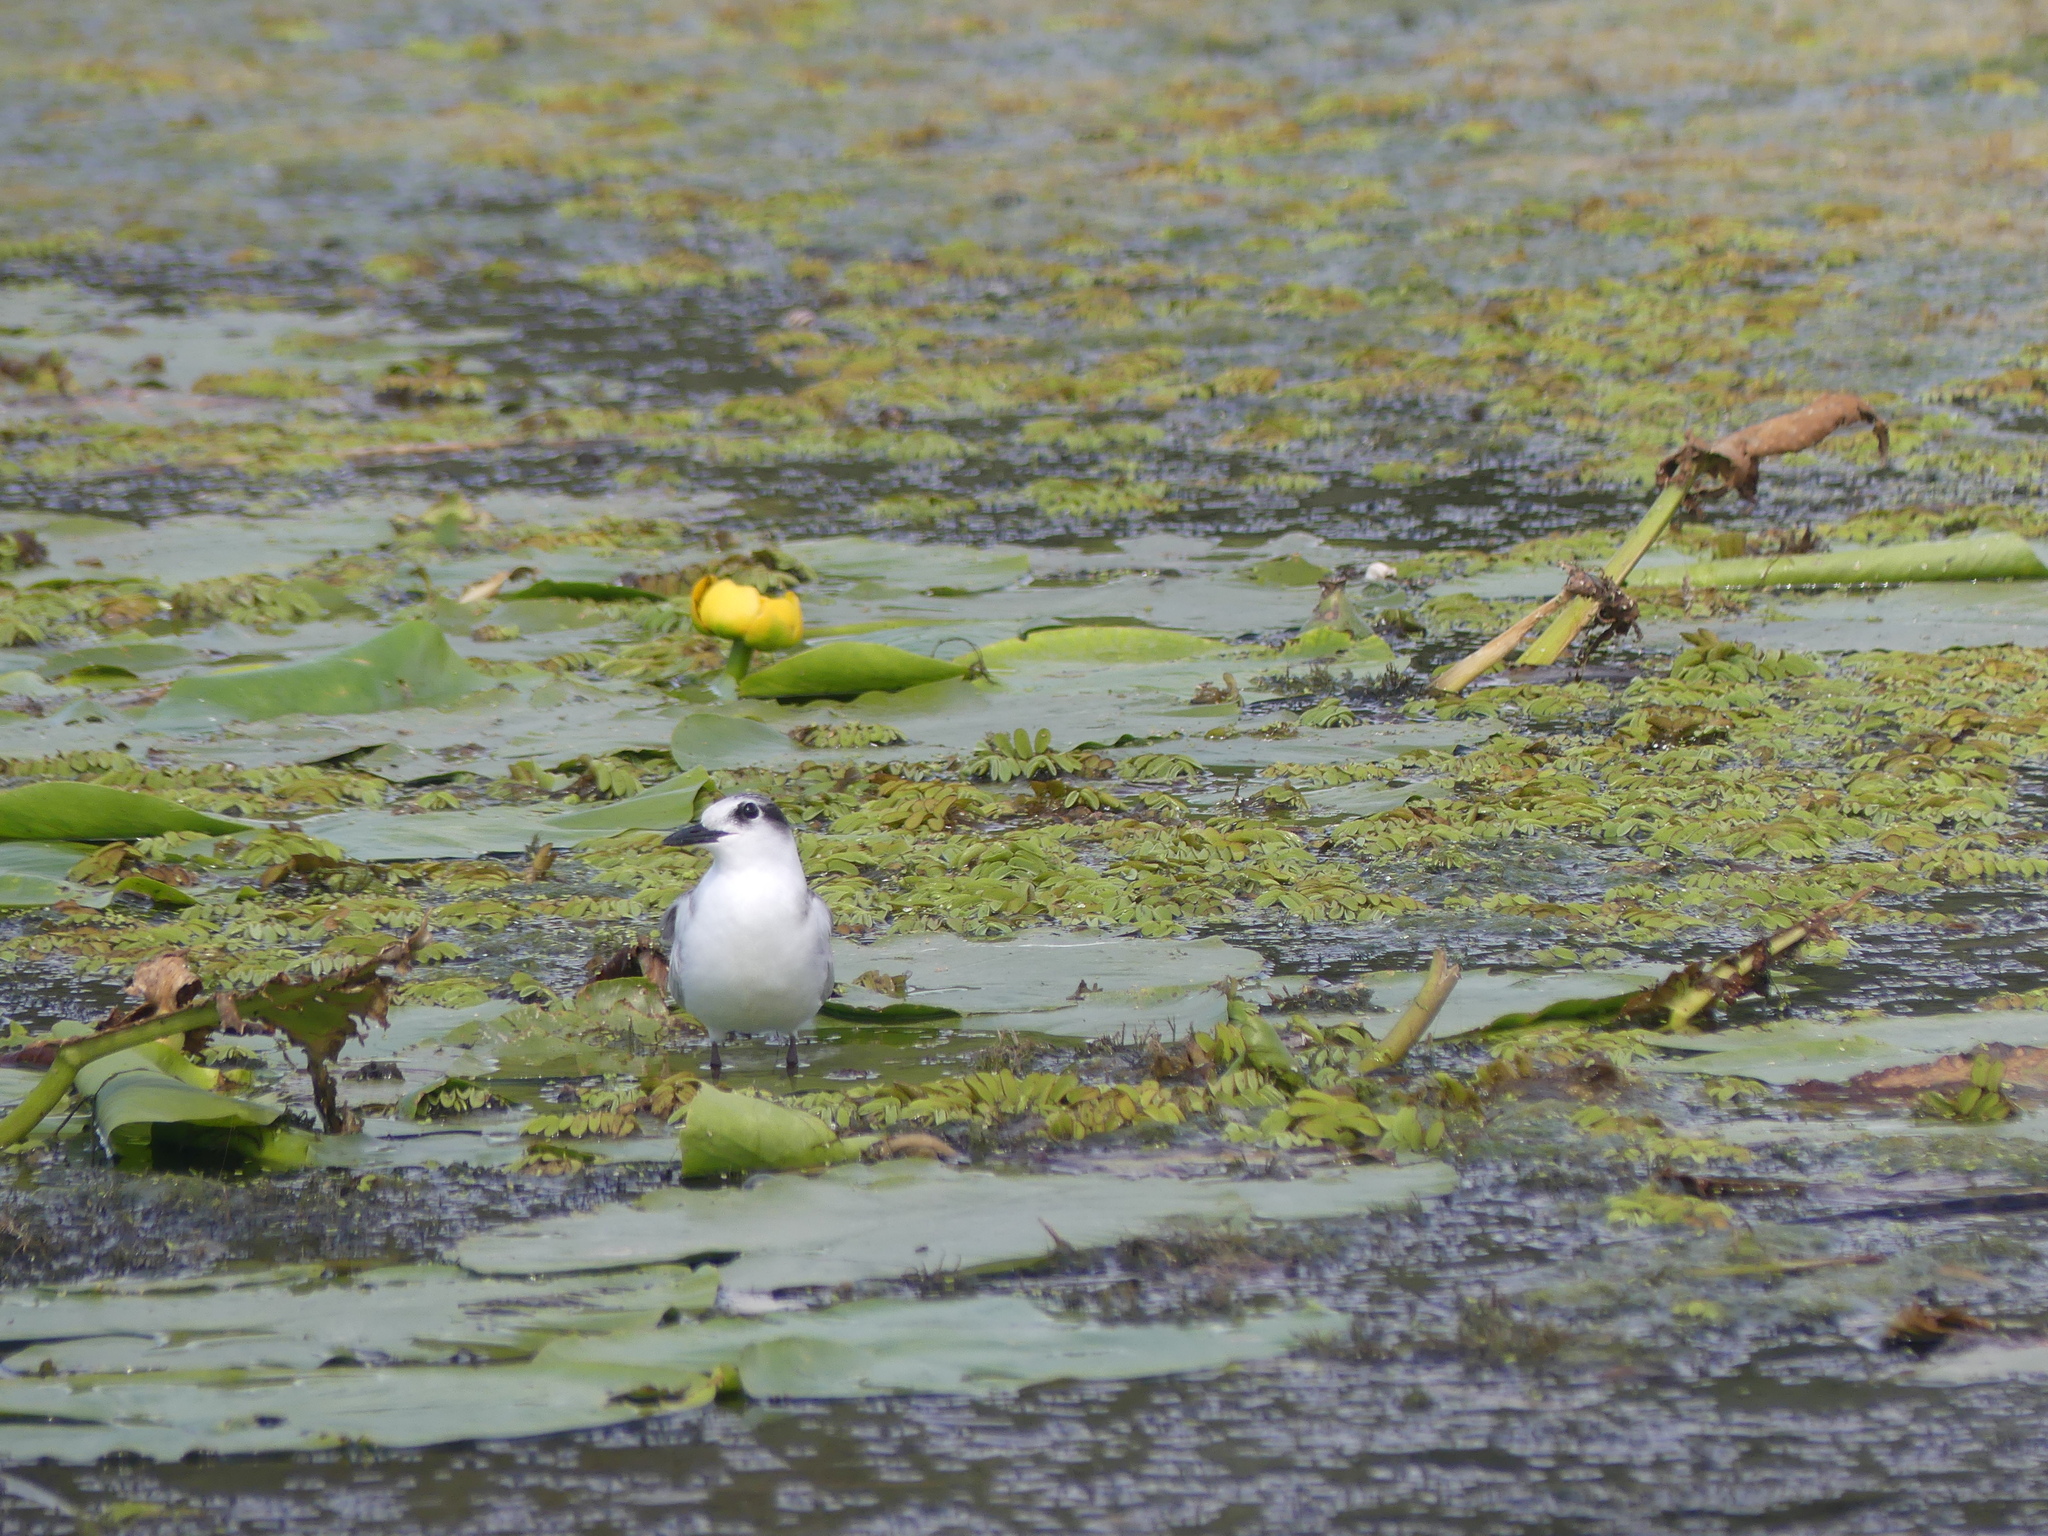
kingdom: Animalia
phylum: Chordata
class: Aves
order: Charadriiformes
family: Laridae
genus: Chlidonias
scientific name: Chlidonias hybrida
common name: Whiskered tern
